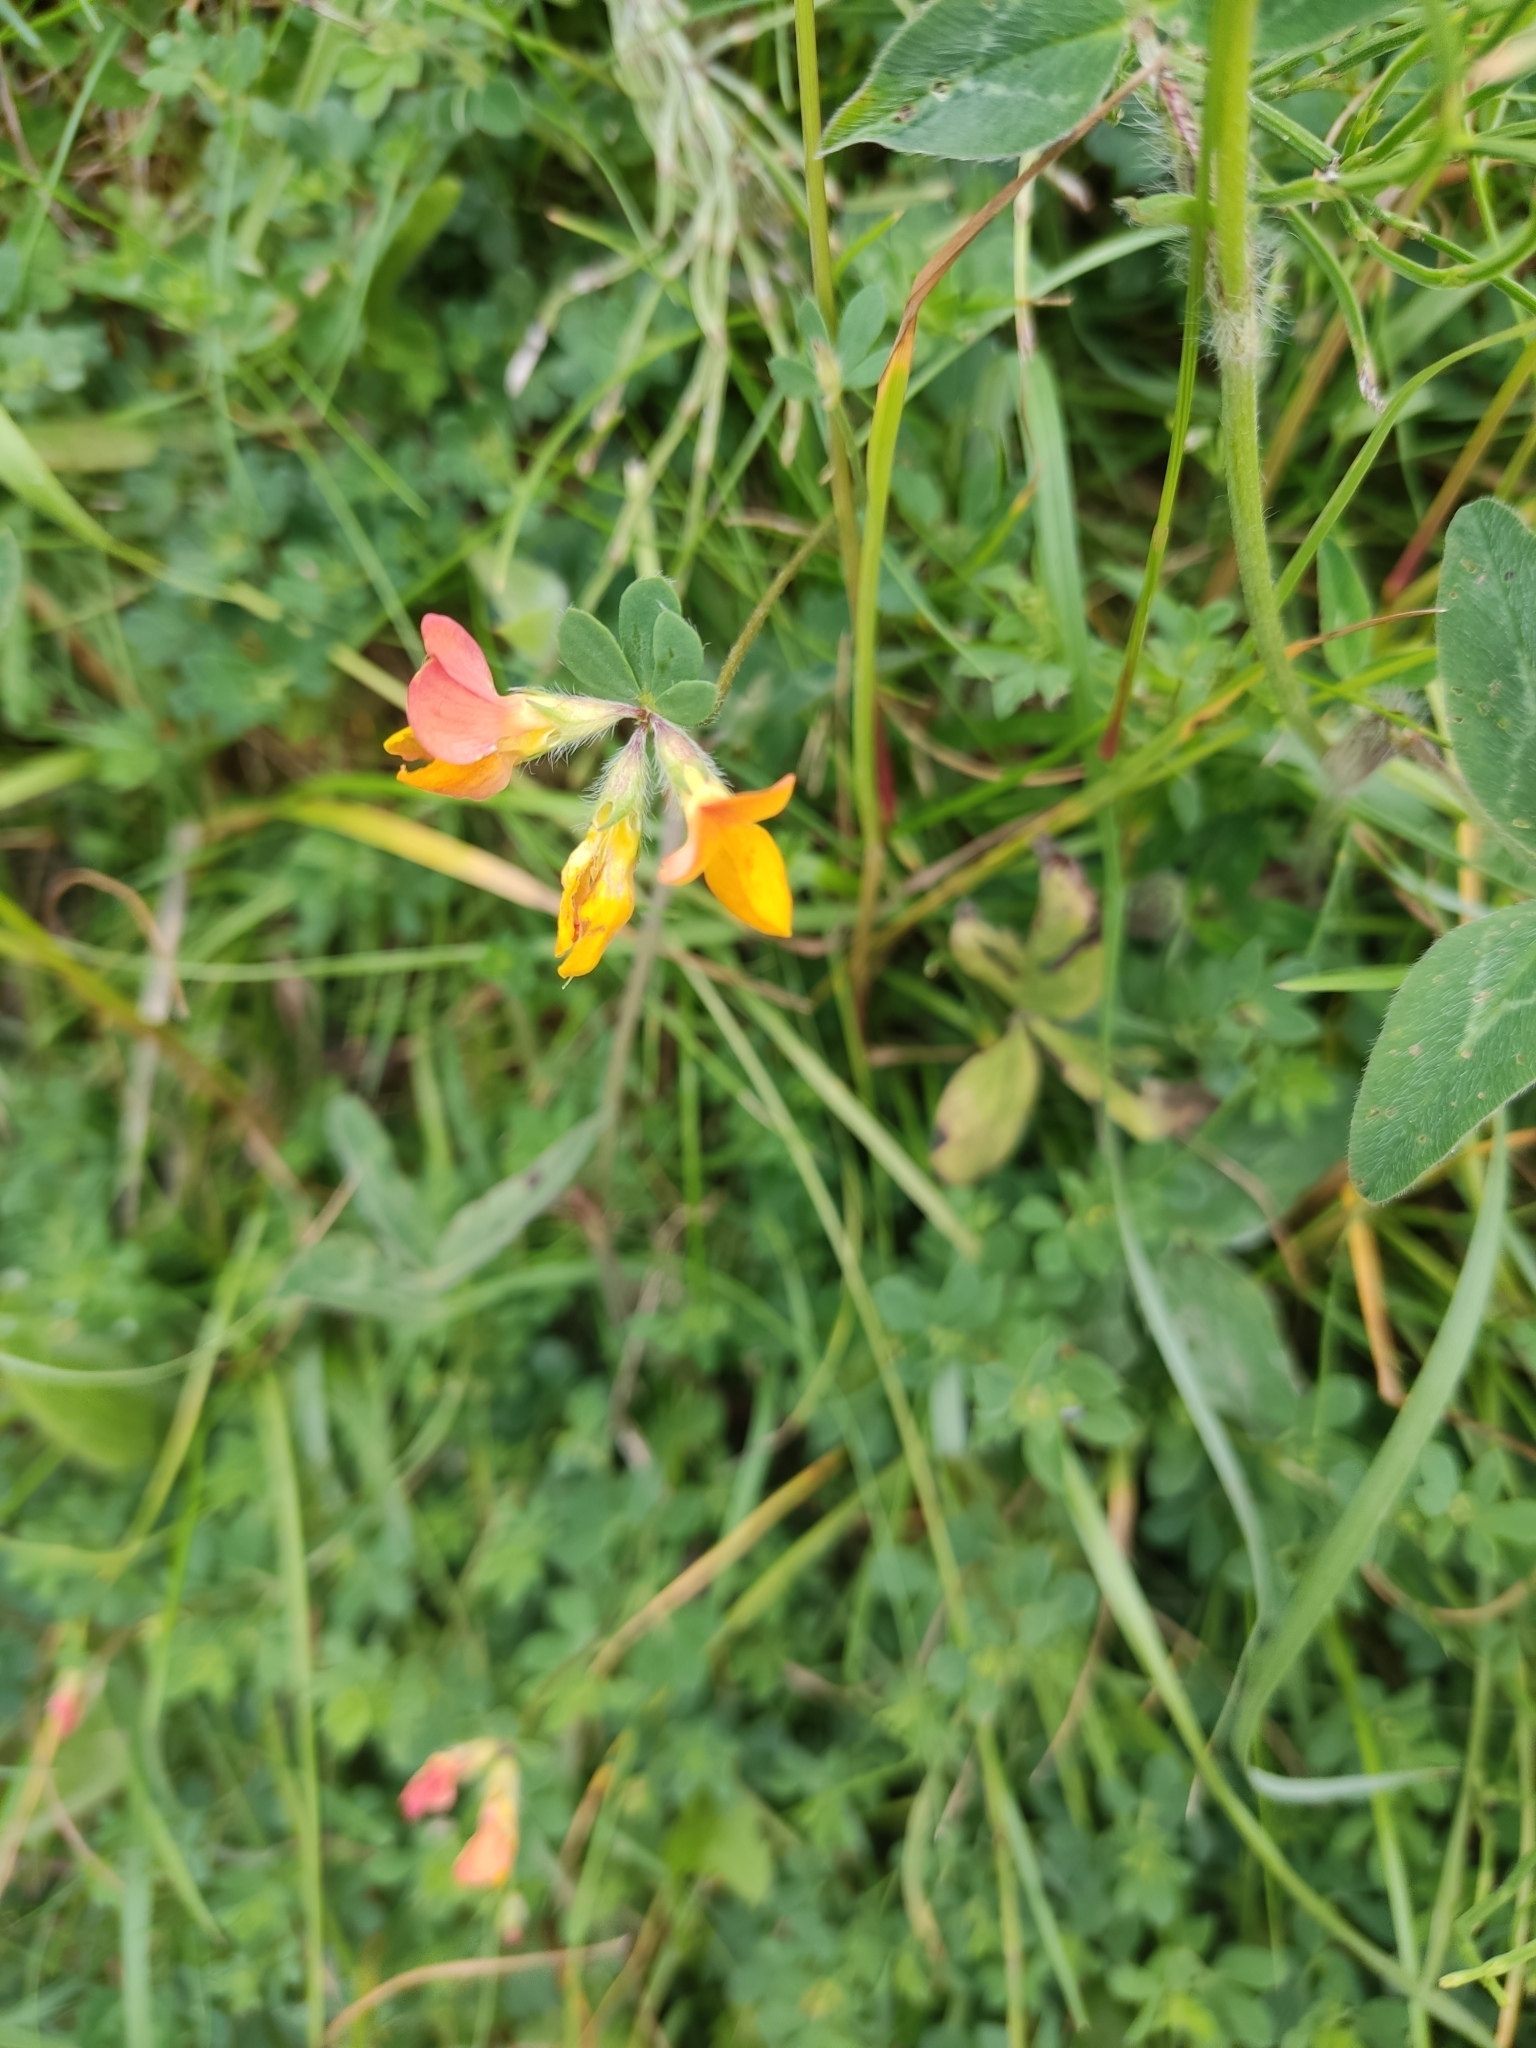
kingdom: Plantae
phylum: Tracheophyta
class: Magnoliopsida
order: Fabales
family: Fabaceae
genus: Lotus
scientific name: Lotus corniculatus
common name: Common bird's-foot-trefoil
